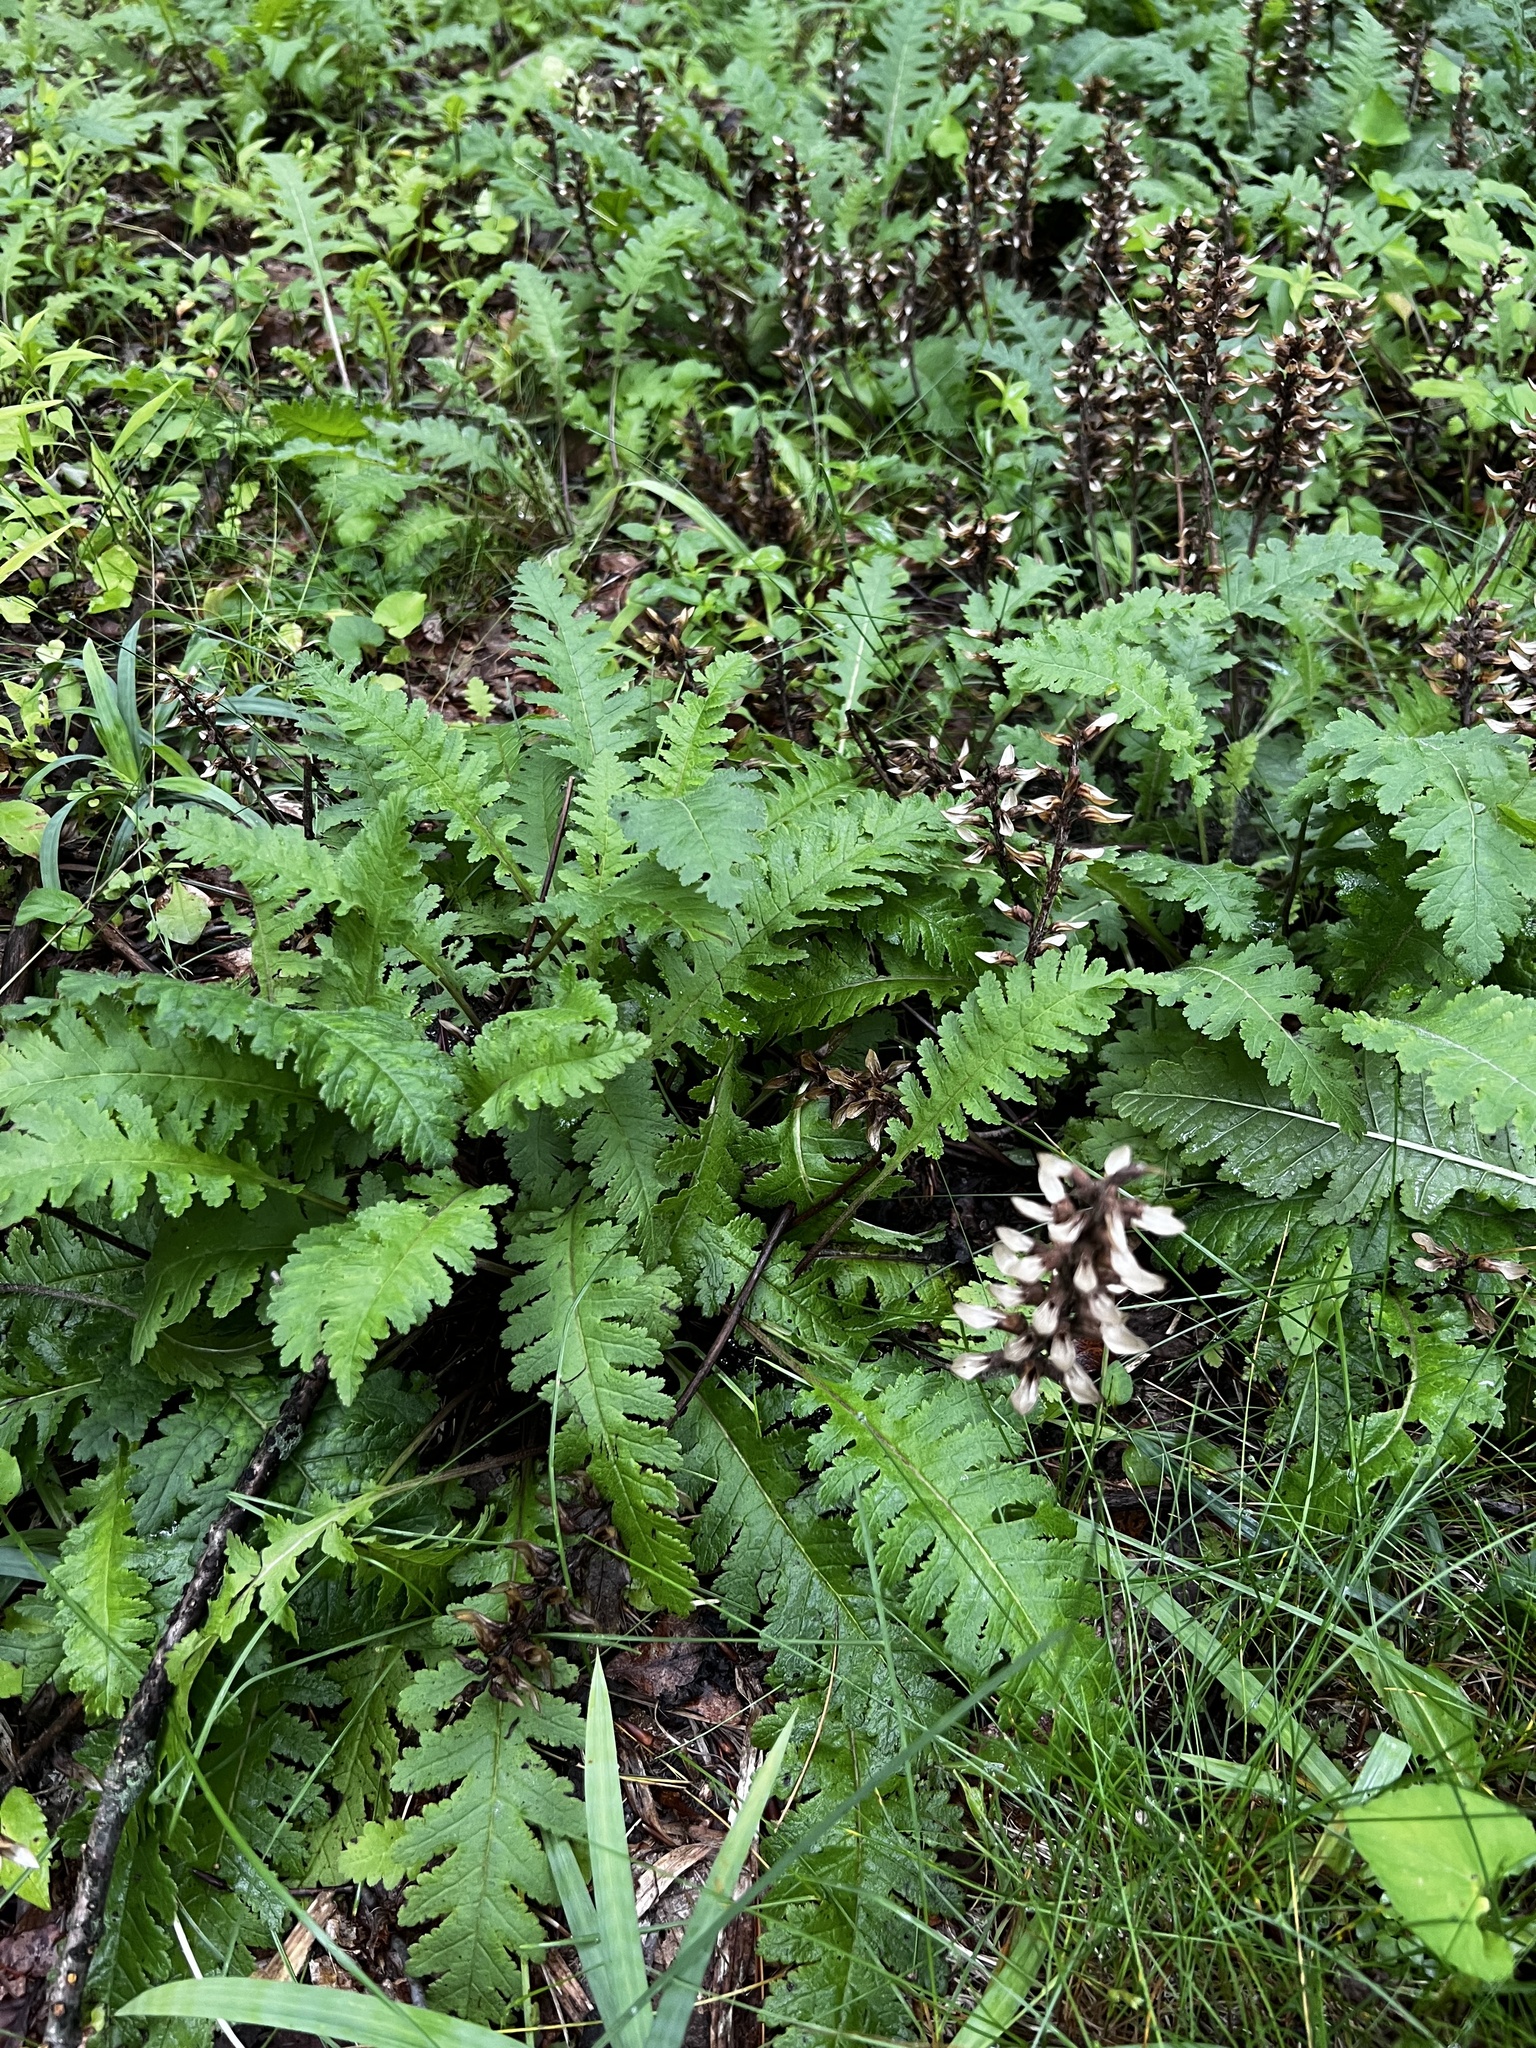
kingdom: Plantae
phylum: Tracheophyta
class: Magnoliopsida
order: Lamiales
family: Orobanchaceae
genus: Pedicularis
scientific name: Pedicularis canadensis
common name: Early lousewort
